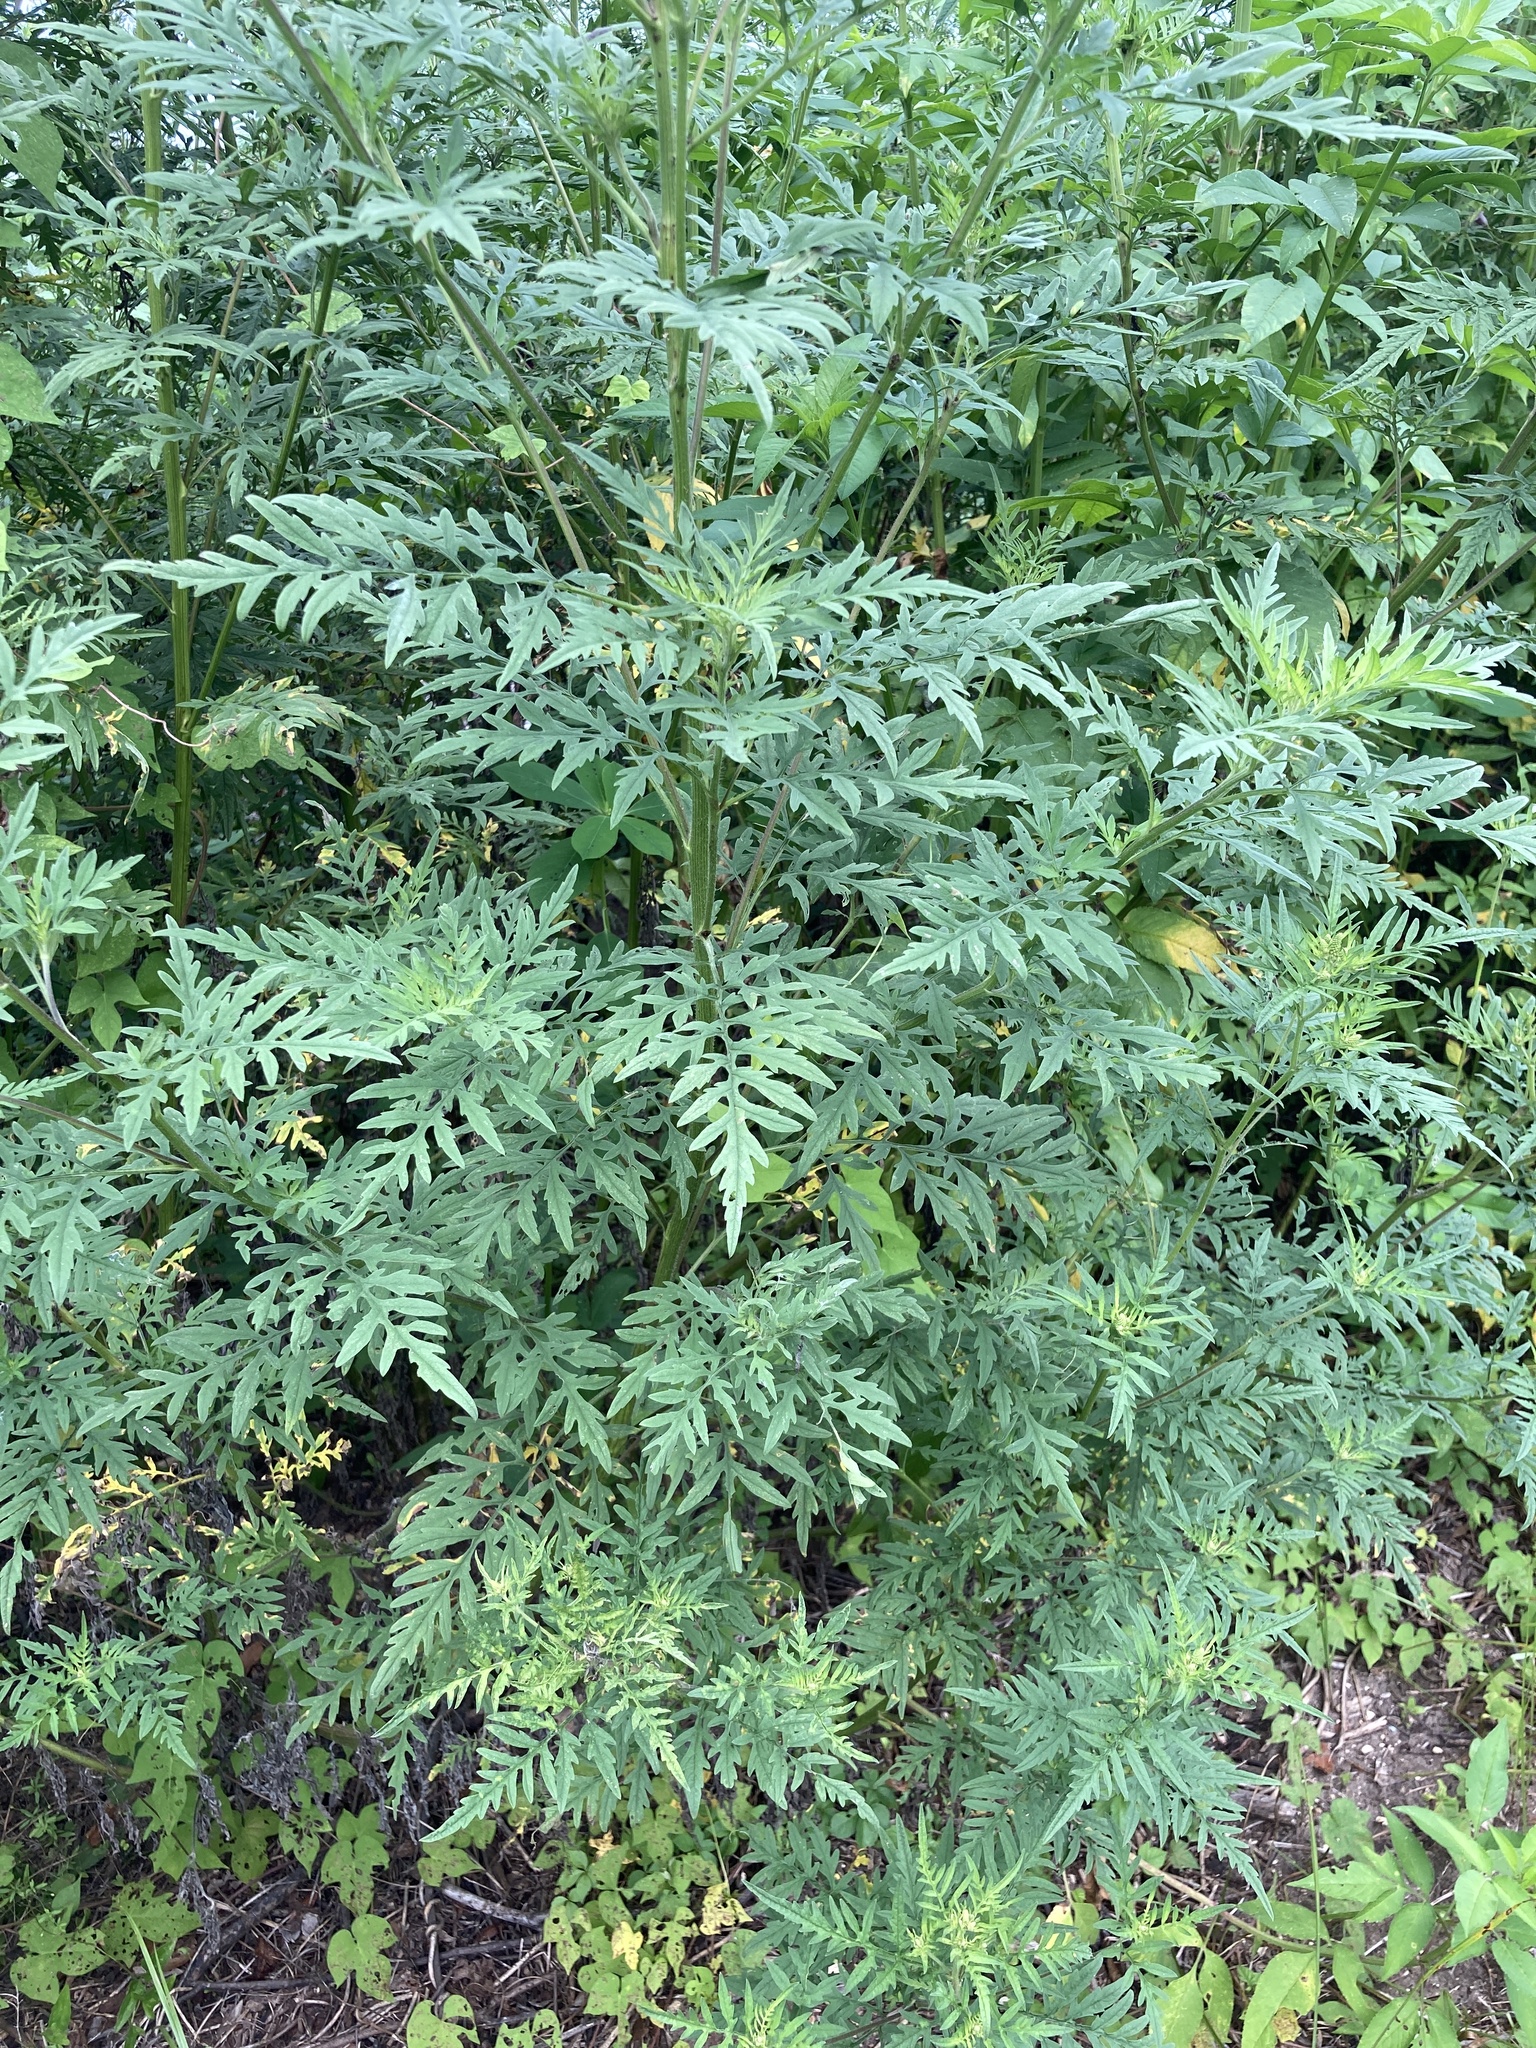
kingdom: Plantae
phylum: Tracheophyta
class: Magnoliopsida
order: Asterales
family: Asteraceae
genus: Ambrosia
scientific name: Ambrosia artemisiifolia
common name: Annual ragweed
